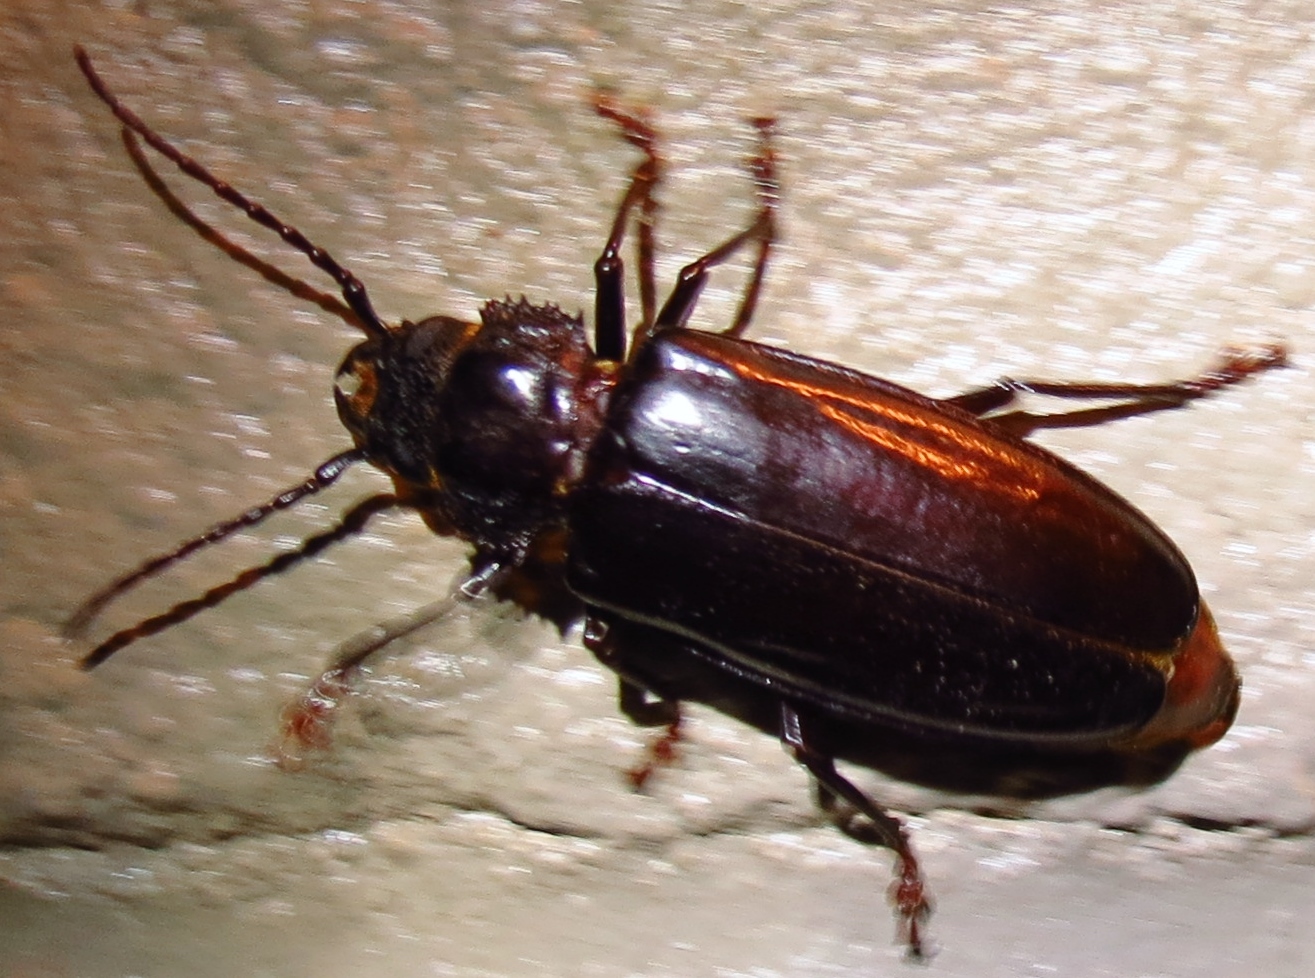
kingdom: Animalia
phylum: Arthropoda
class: Insecta
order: Coleoptera
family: Cerambycidae
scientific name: Cerambycidae
